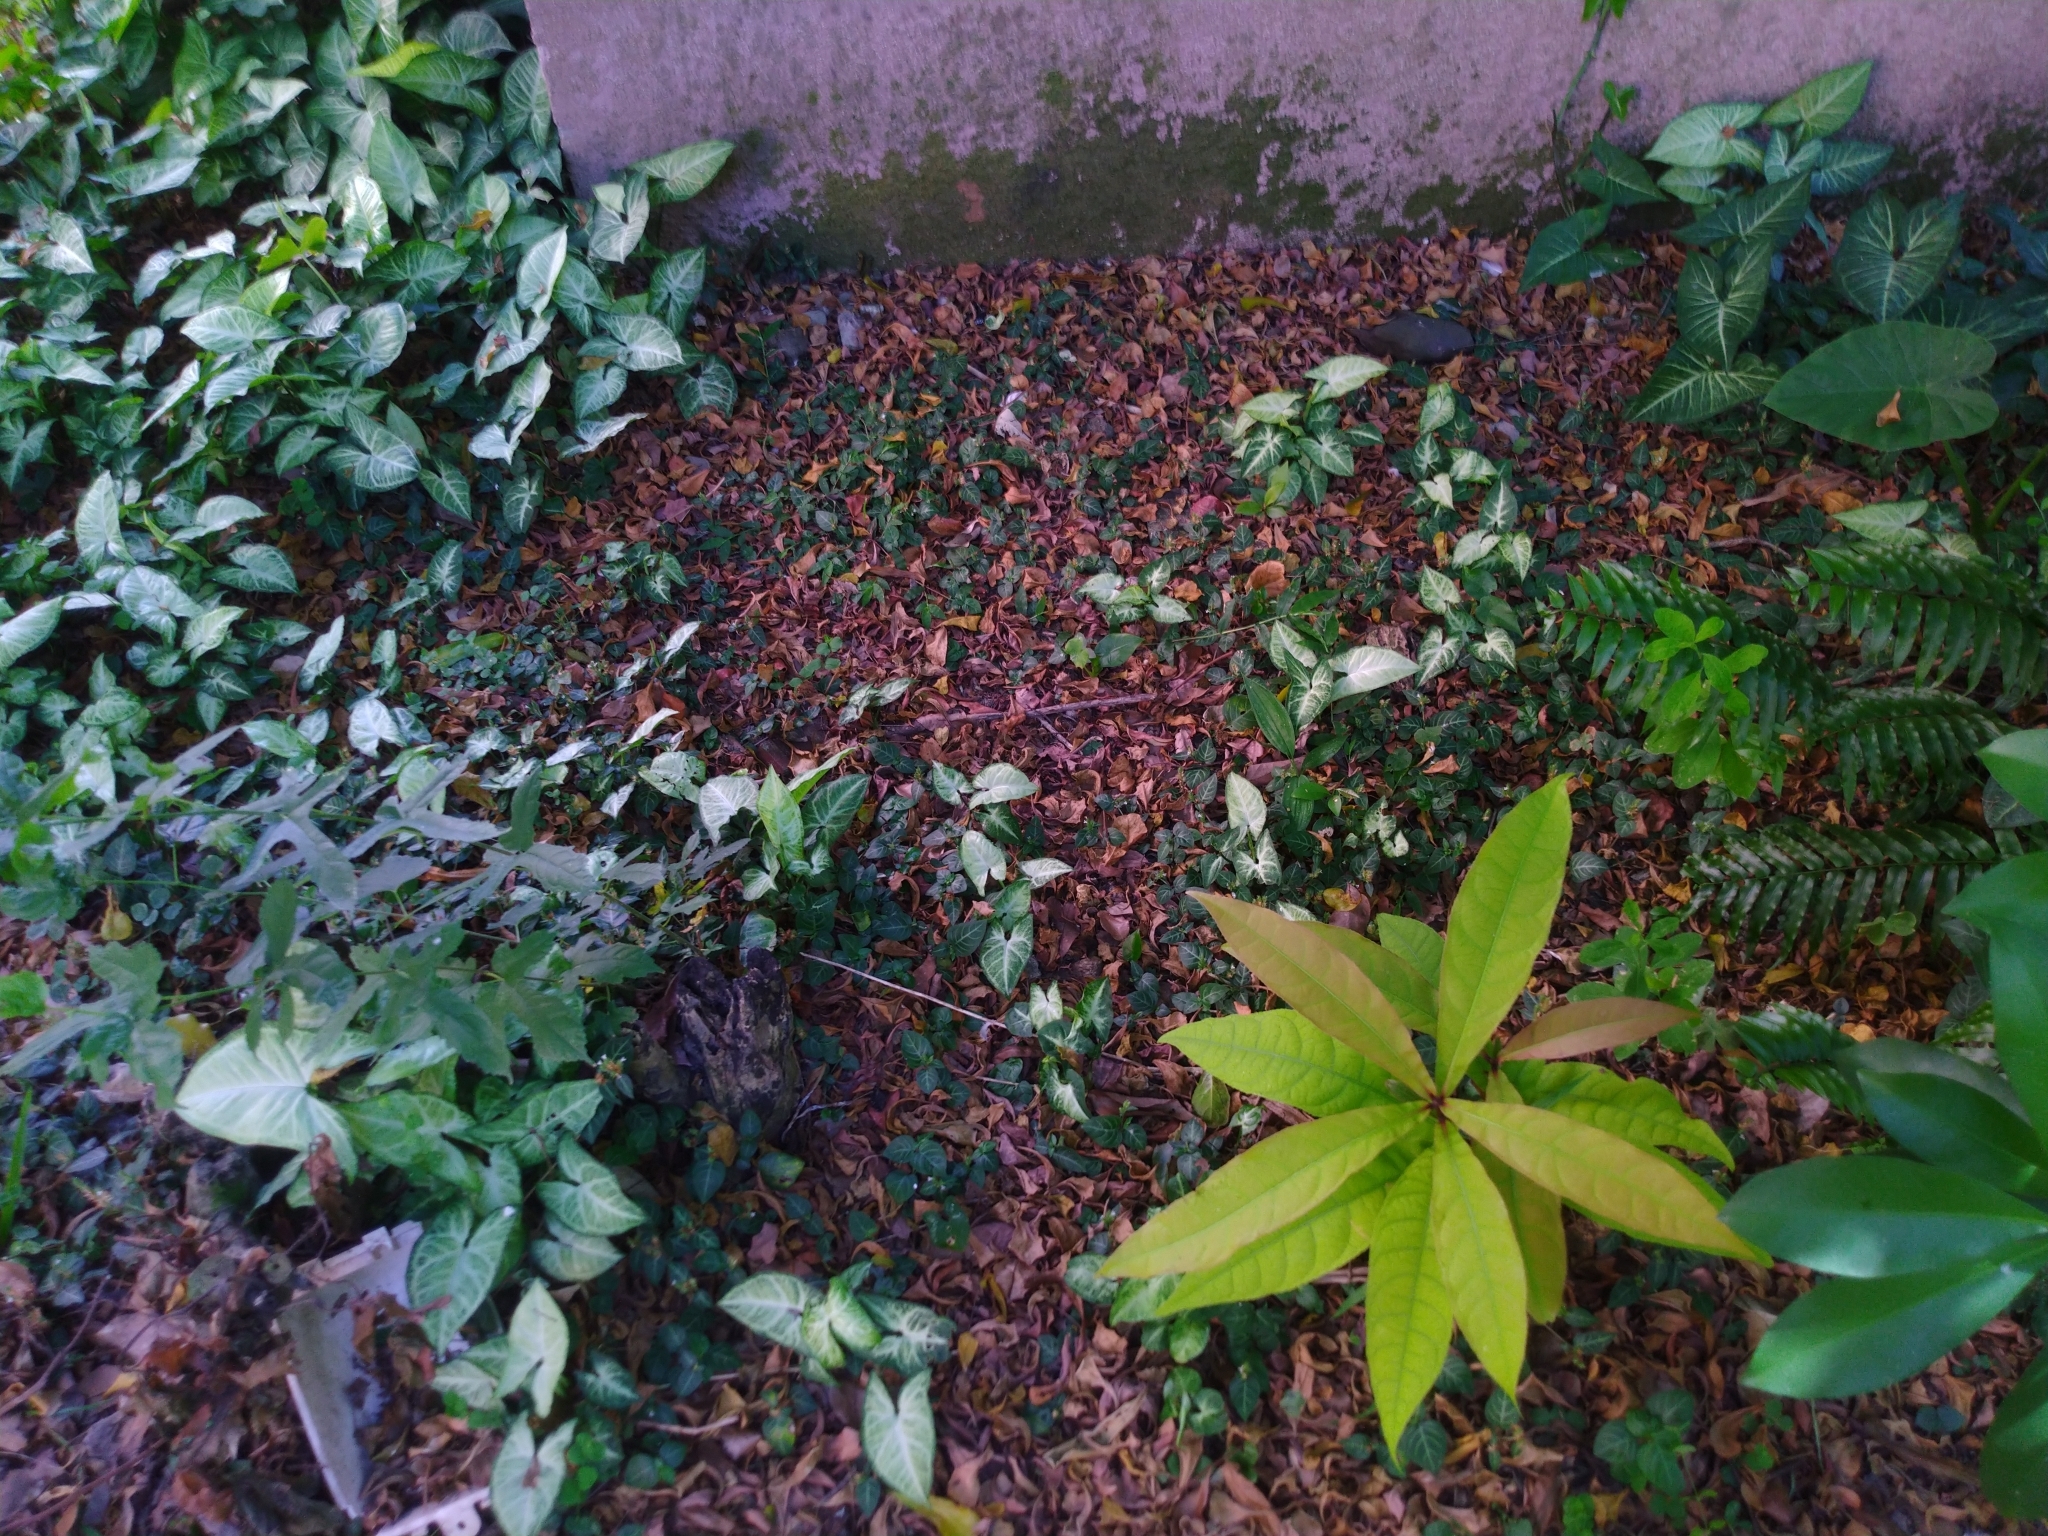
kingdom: Plantae
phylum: Tracheophyta
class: Magnoliopsida
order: Lamiales
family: Acanthaceae
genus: Lepidagathis
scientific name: Lepidagathis inaequalis
